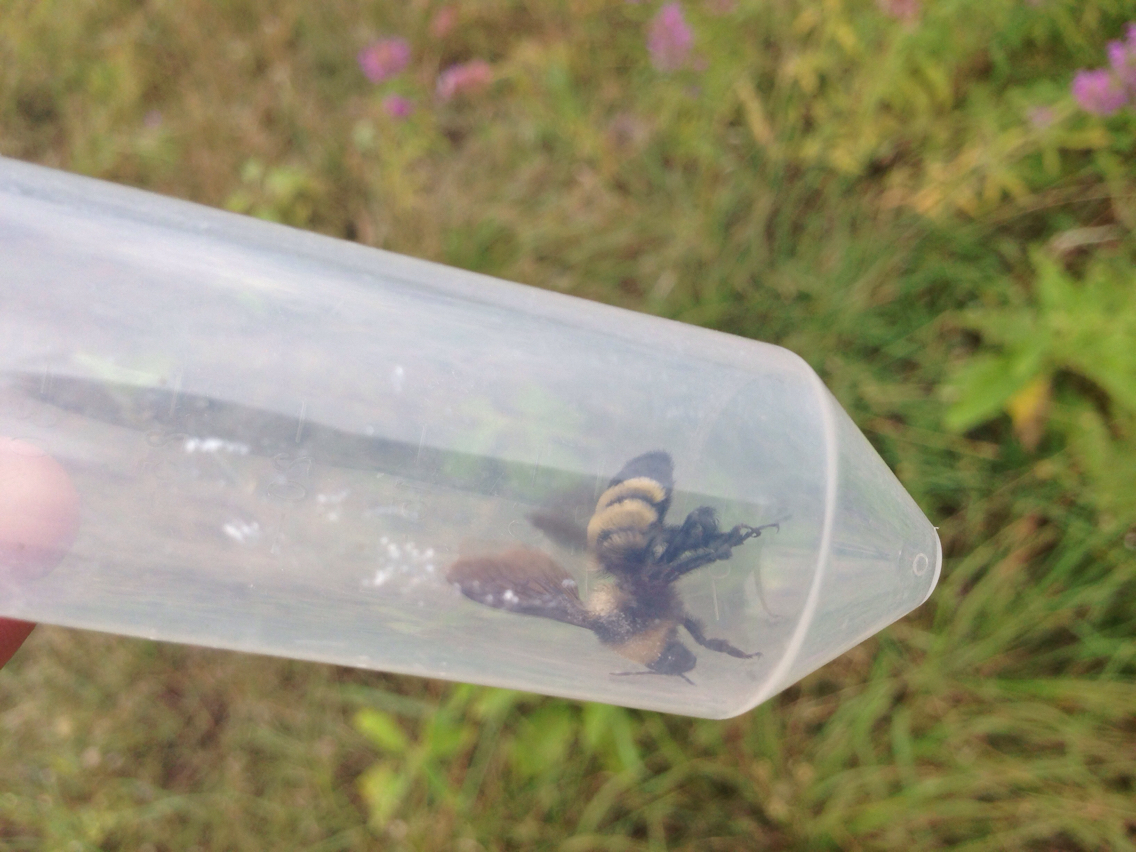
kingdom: Animalia
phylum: Arthropoda
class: Insecta
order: Hymenoptera
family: Apidae
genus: Bombus
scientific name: Bombus sonorus
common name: Sonoran bumble bee
